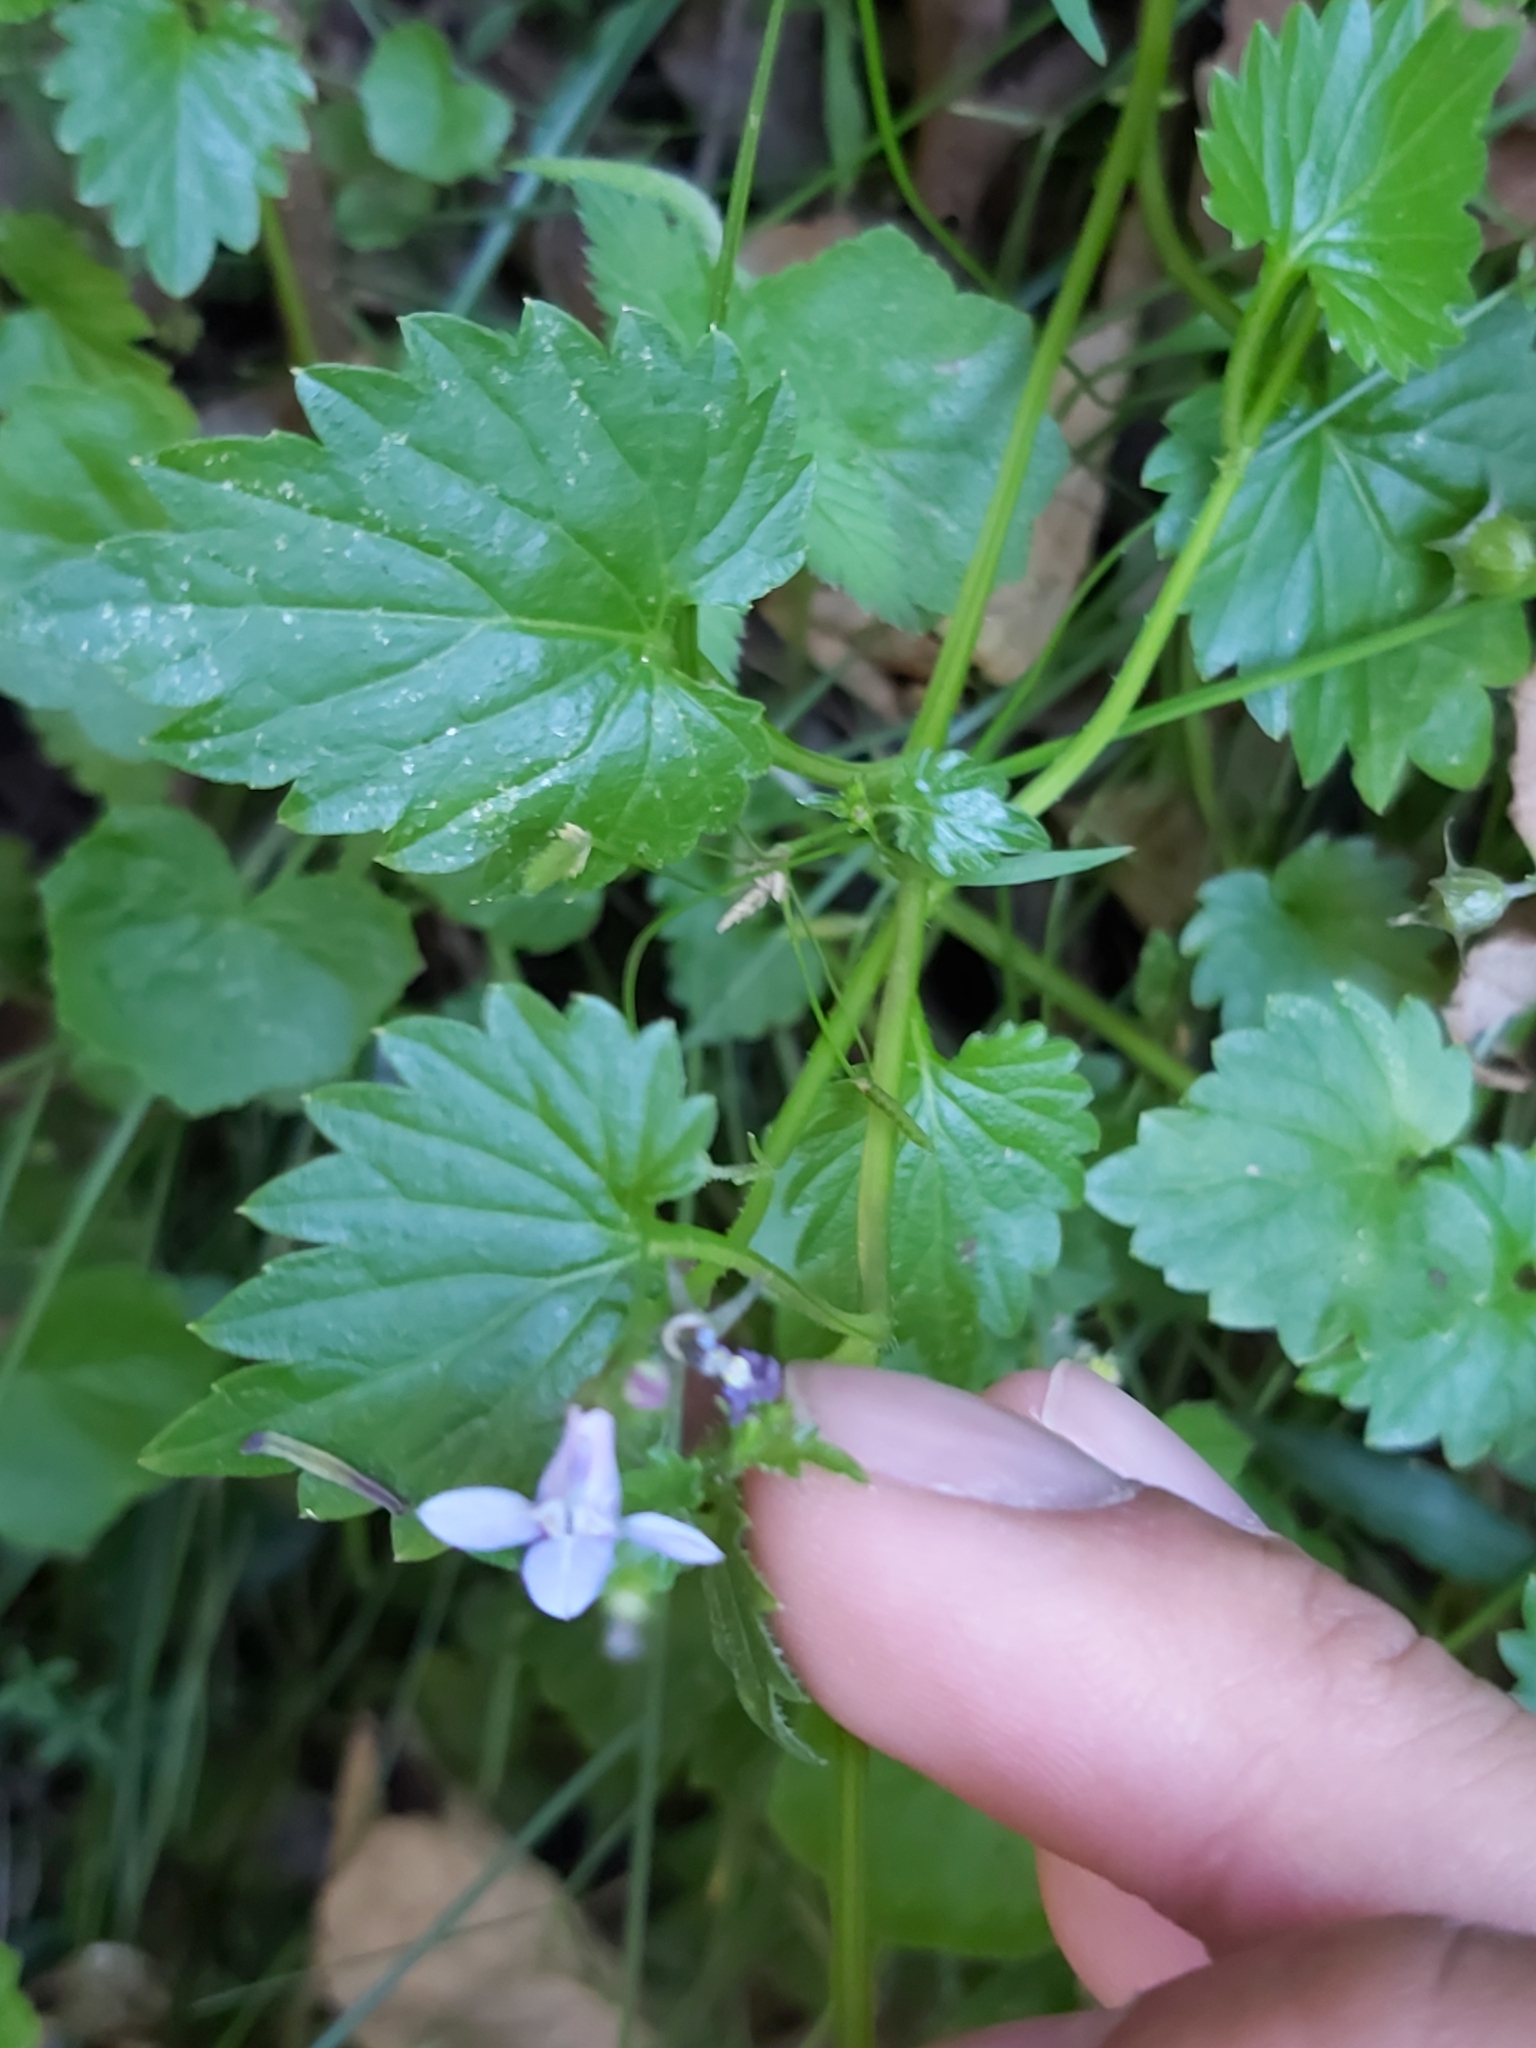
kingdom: Plantae
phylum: Tracheophyta
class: Magnoliopsida
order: Asterales
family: Campanulaceae
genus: Lobelia
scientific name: Lobelia trigonocaulis
